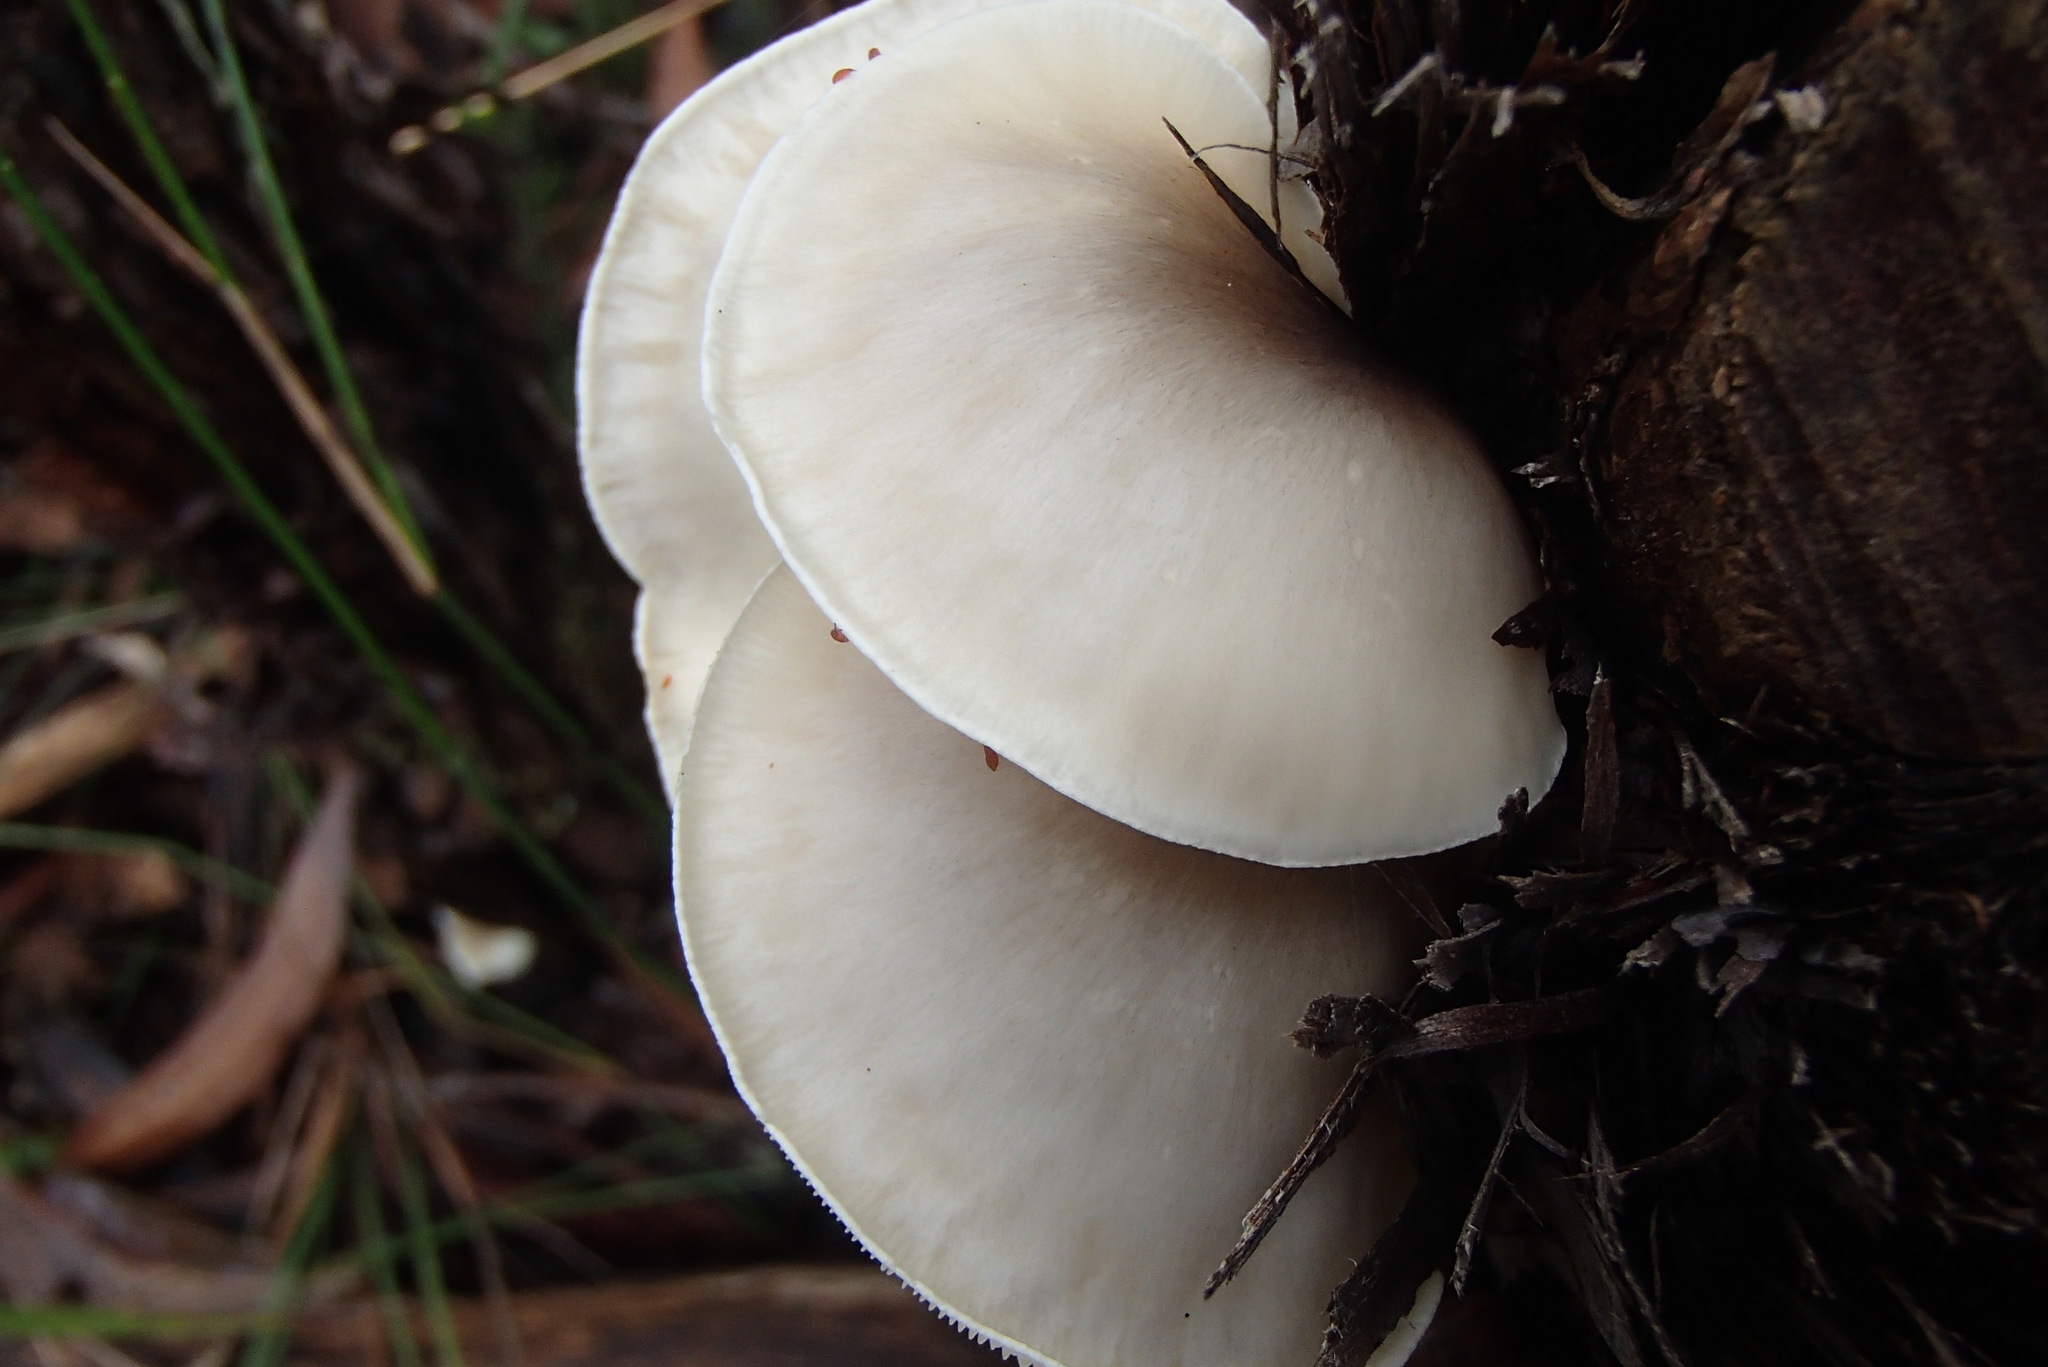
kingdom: Fungi
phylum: Basidiomycota
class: Agaricomycetes
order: Agaricales
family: Omphalotaceae
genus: Omphalotus
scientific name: Omphalotus nidiformis
